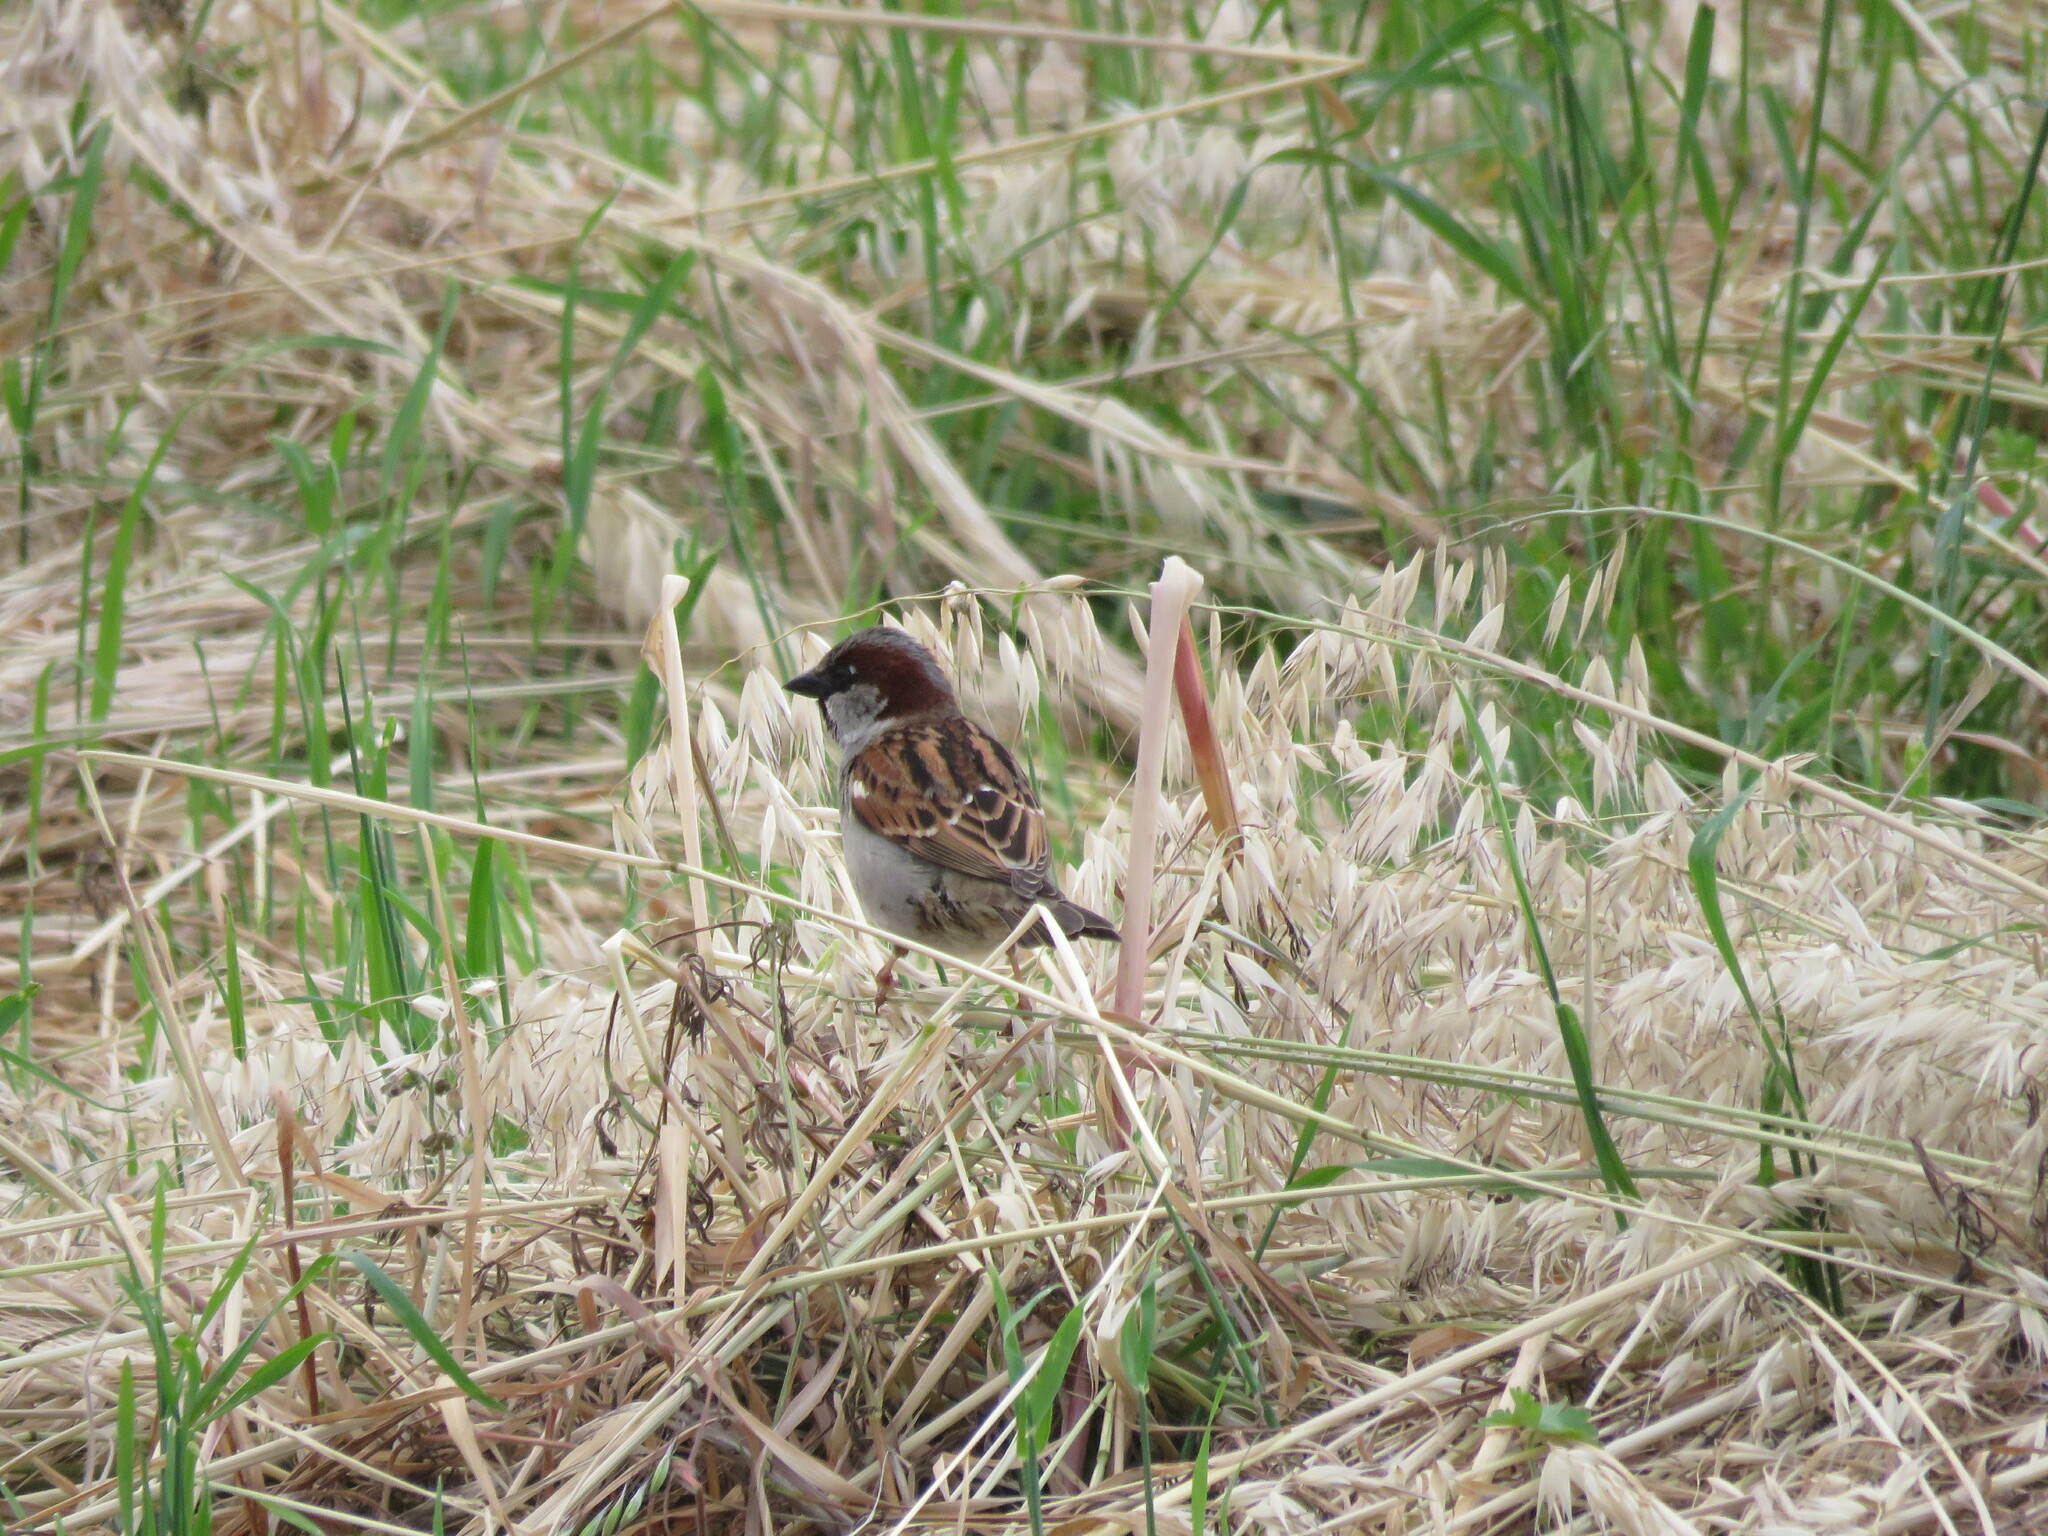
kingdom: Animalia
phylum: Chordata
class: Aves
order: Passeriformes
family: Passeridae
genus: Passer
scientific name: Passer domesticus
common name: House sparrow
